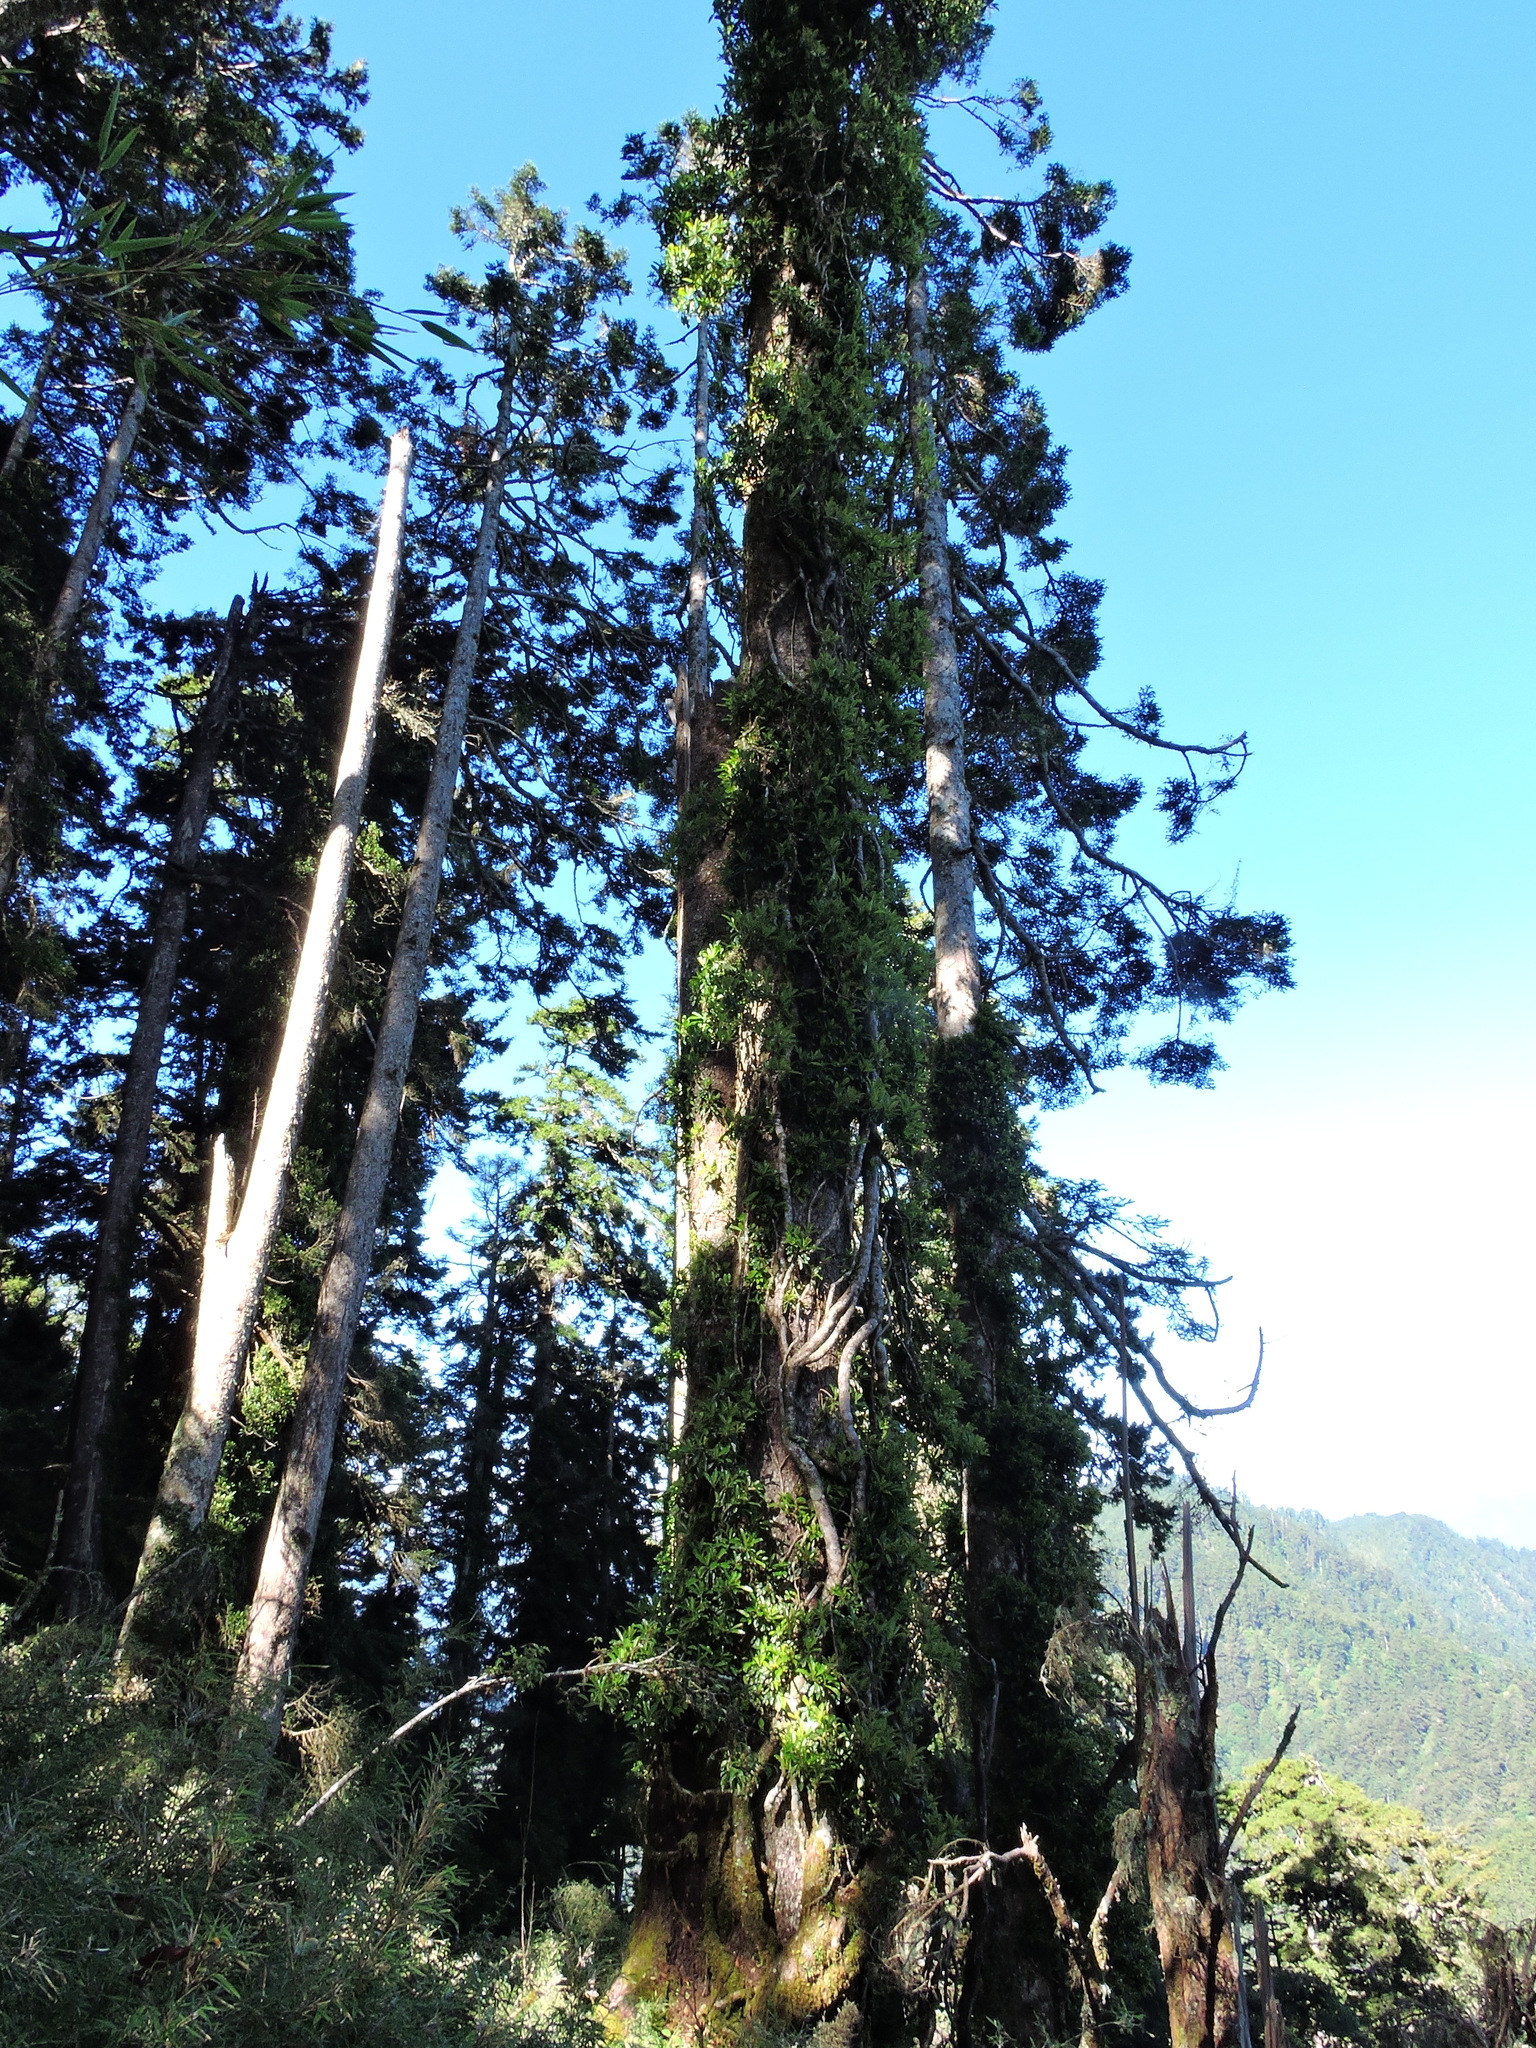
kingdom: Plantae
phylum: Tracheophyta
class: Magnoliopsida
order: Cornales
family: Hydrangeaceae
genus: Hydrangea
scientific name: Hydrangea integrifolia
